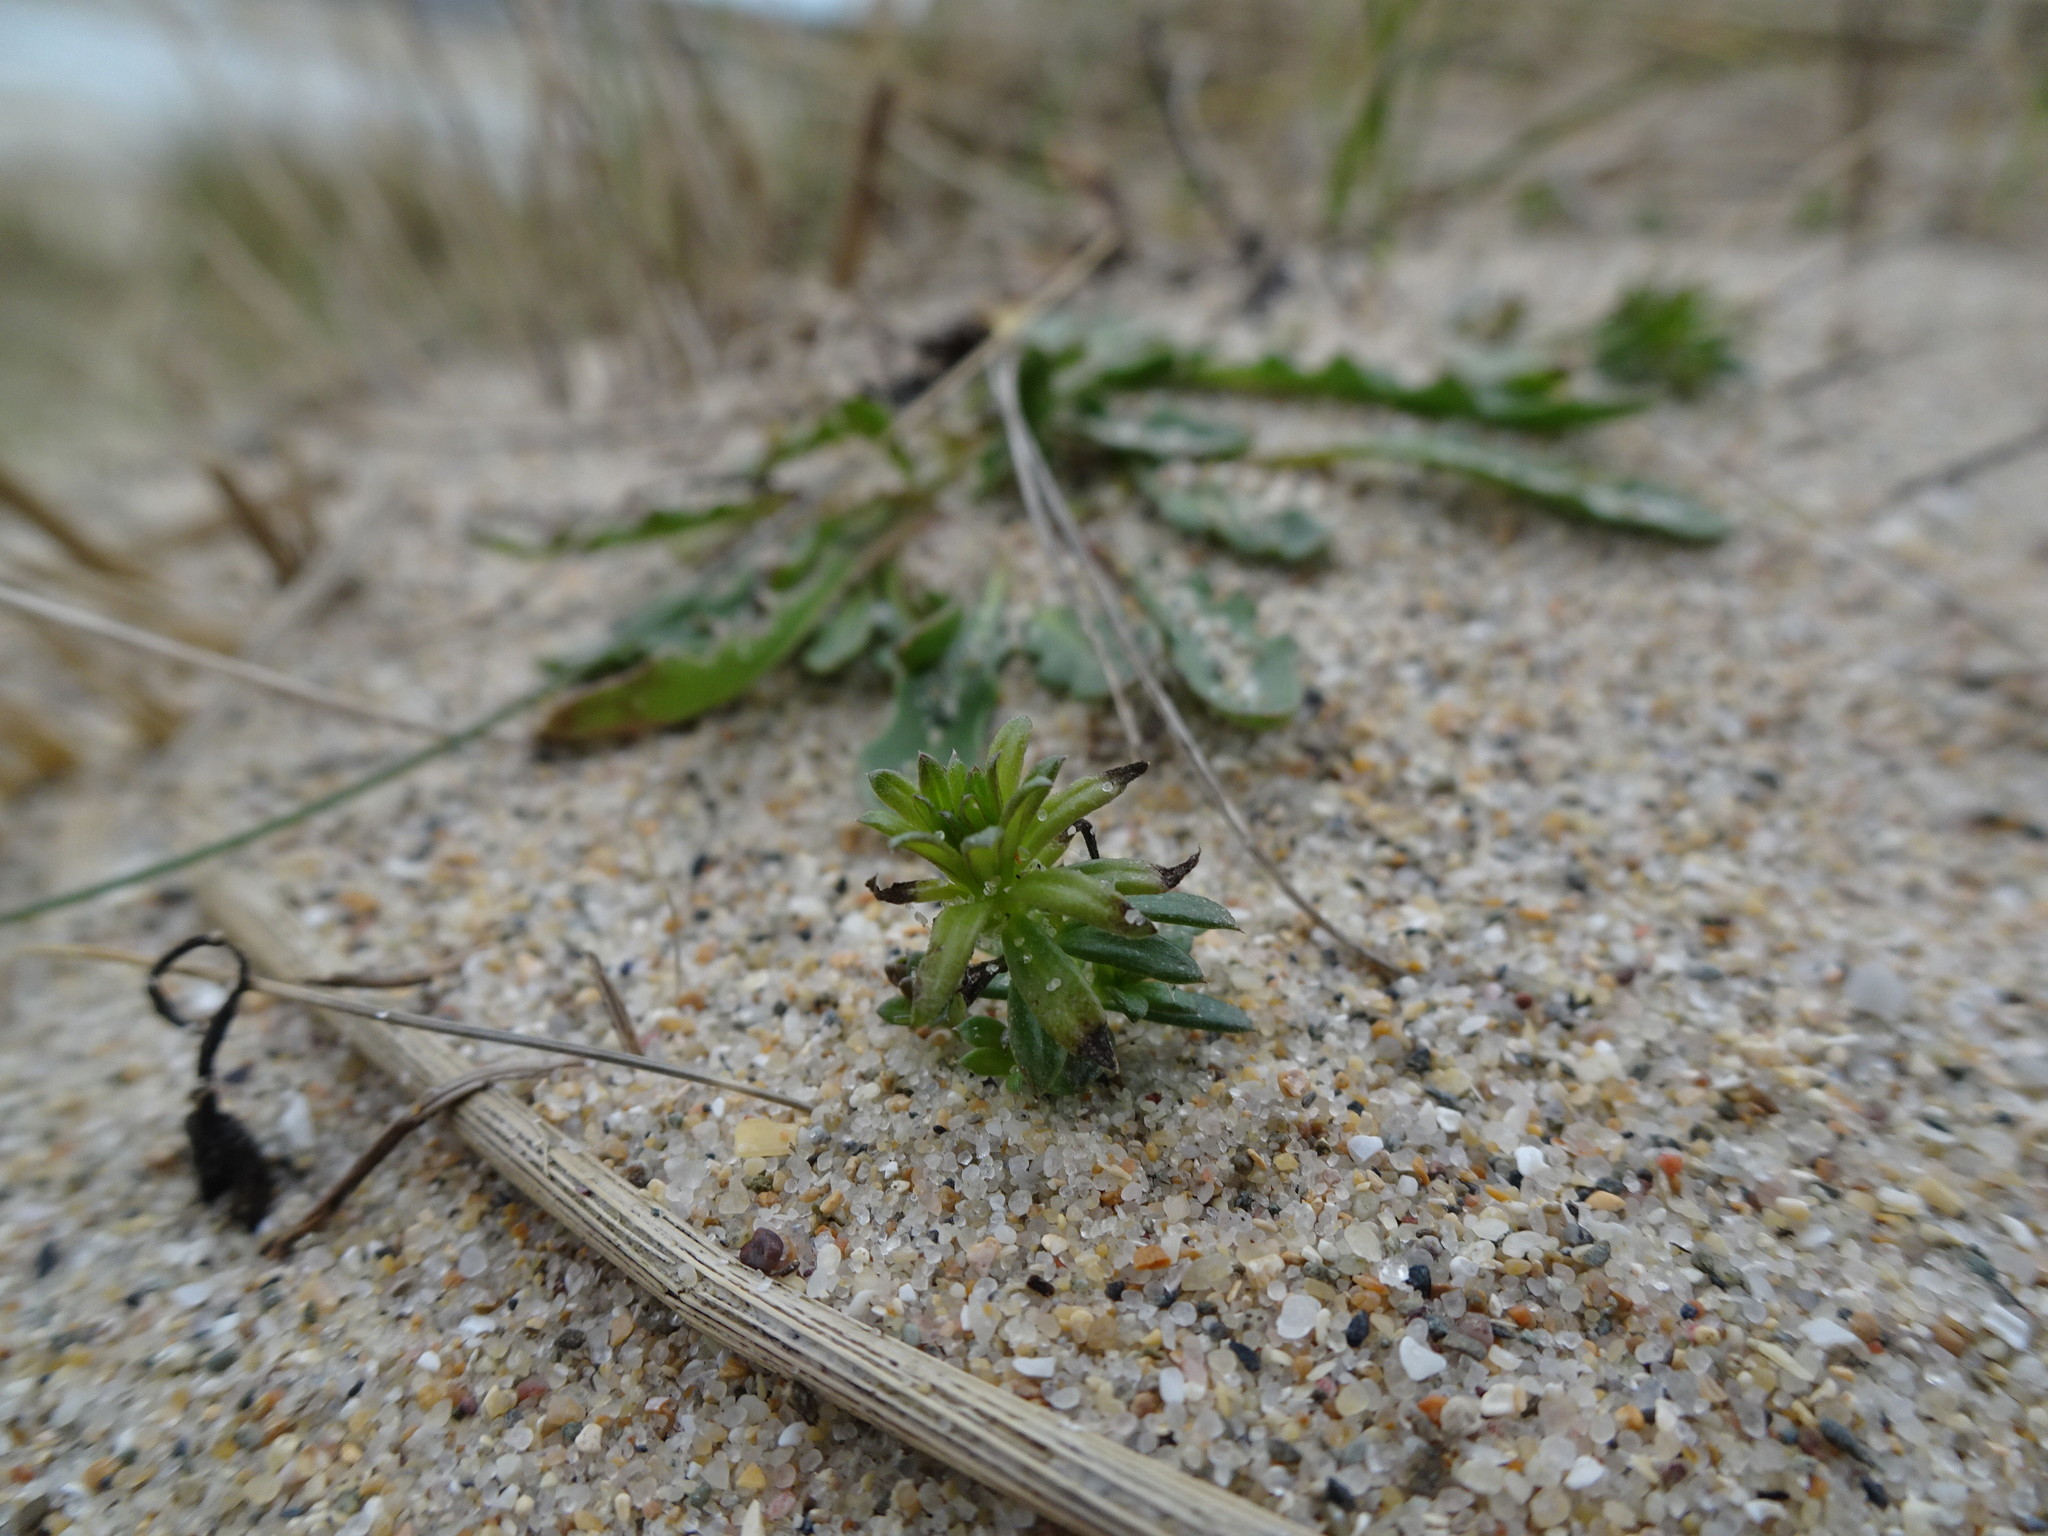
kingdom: Plantae
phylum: Tracheophyta
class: Magnoliopsida
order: Gentianales
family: Rubiaceae
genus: Galium
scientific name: Galium arenarium
